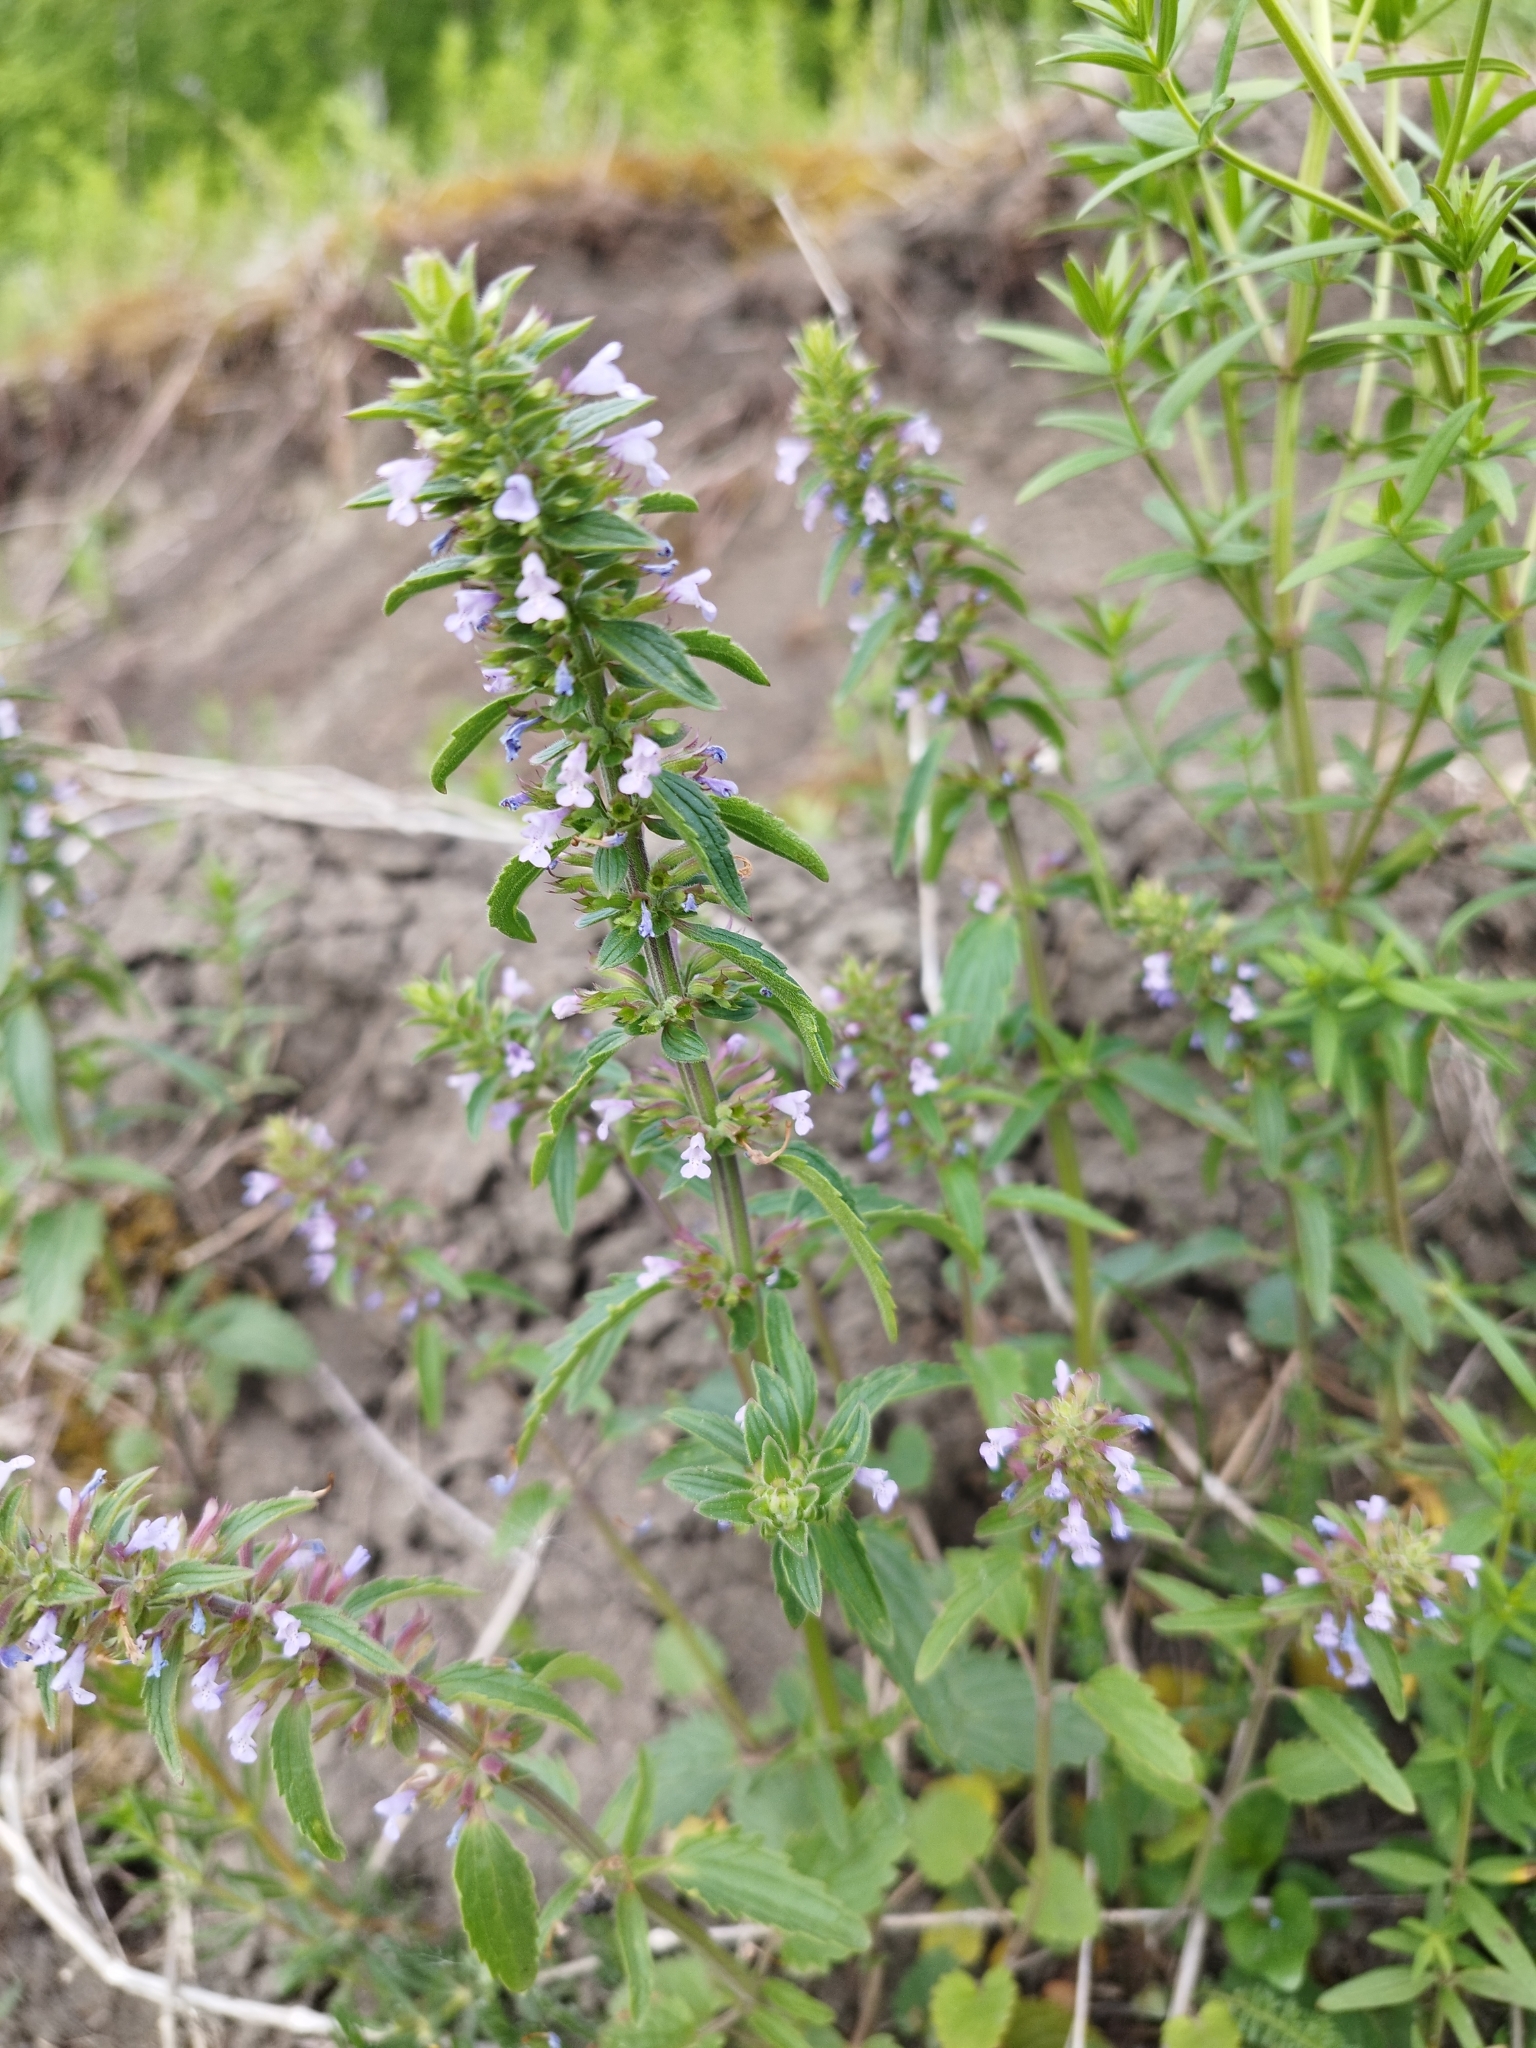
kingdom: Plantae
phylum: Tracheophyta
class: Magnoliopsida
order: Lamiales
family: Lamiaceae
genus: Dracocephalum
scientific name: Dracocephalum thymiflorum
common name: Thymeleaf dragonhead
